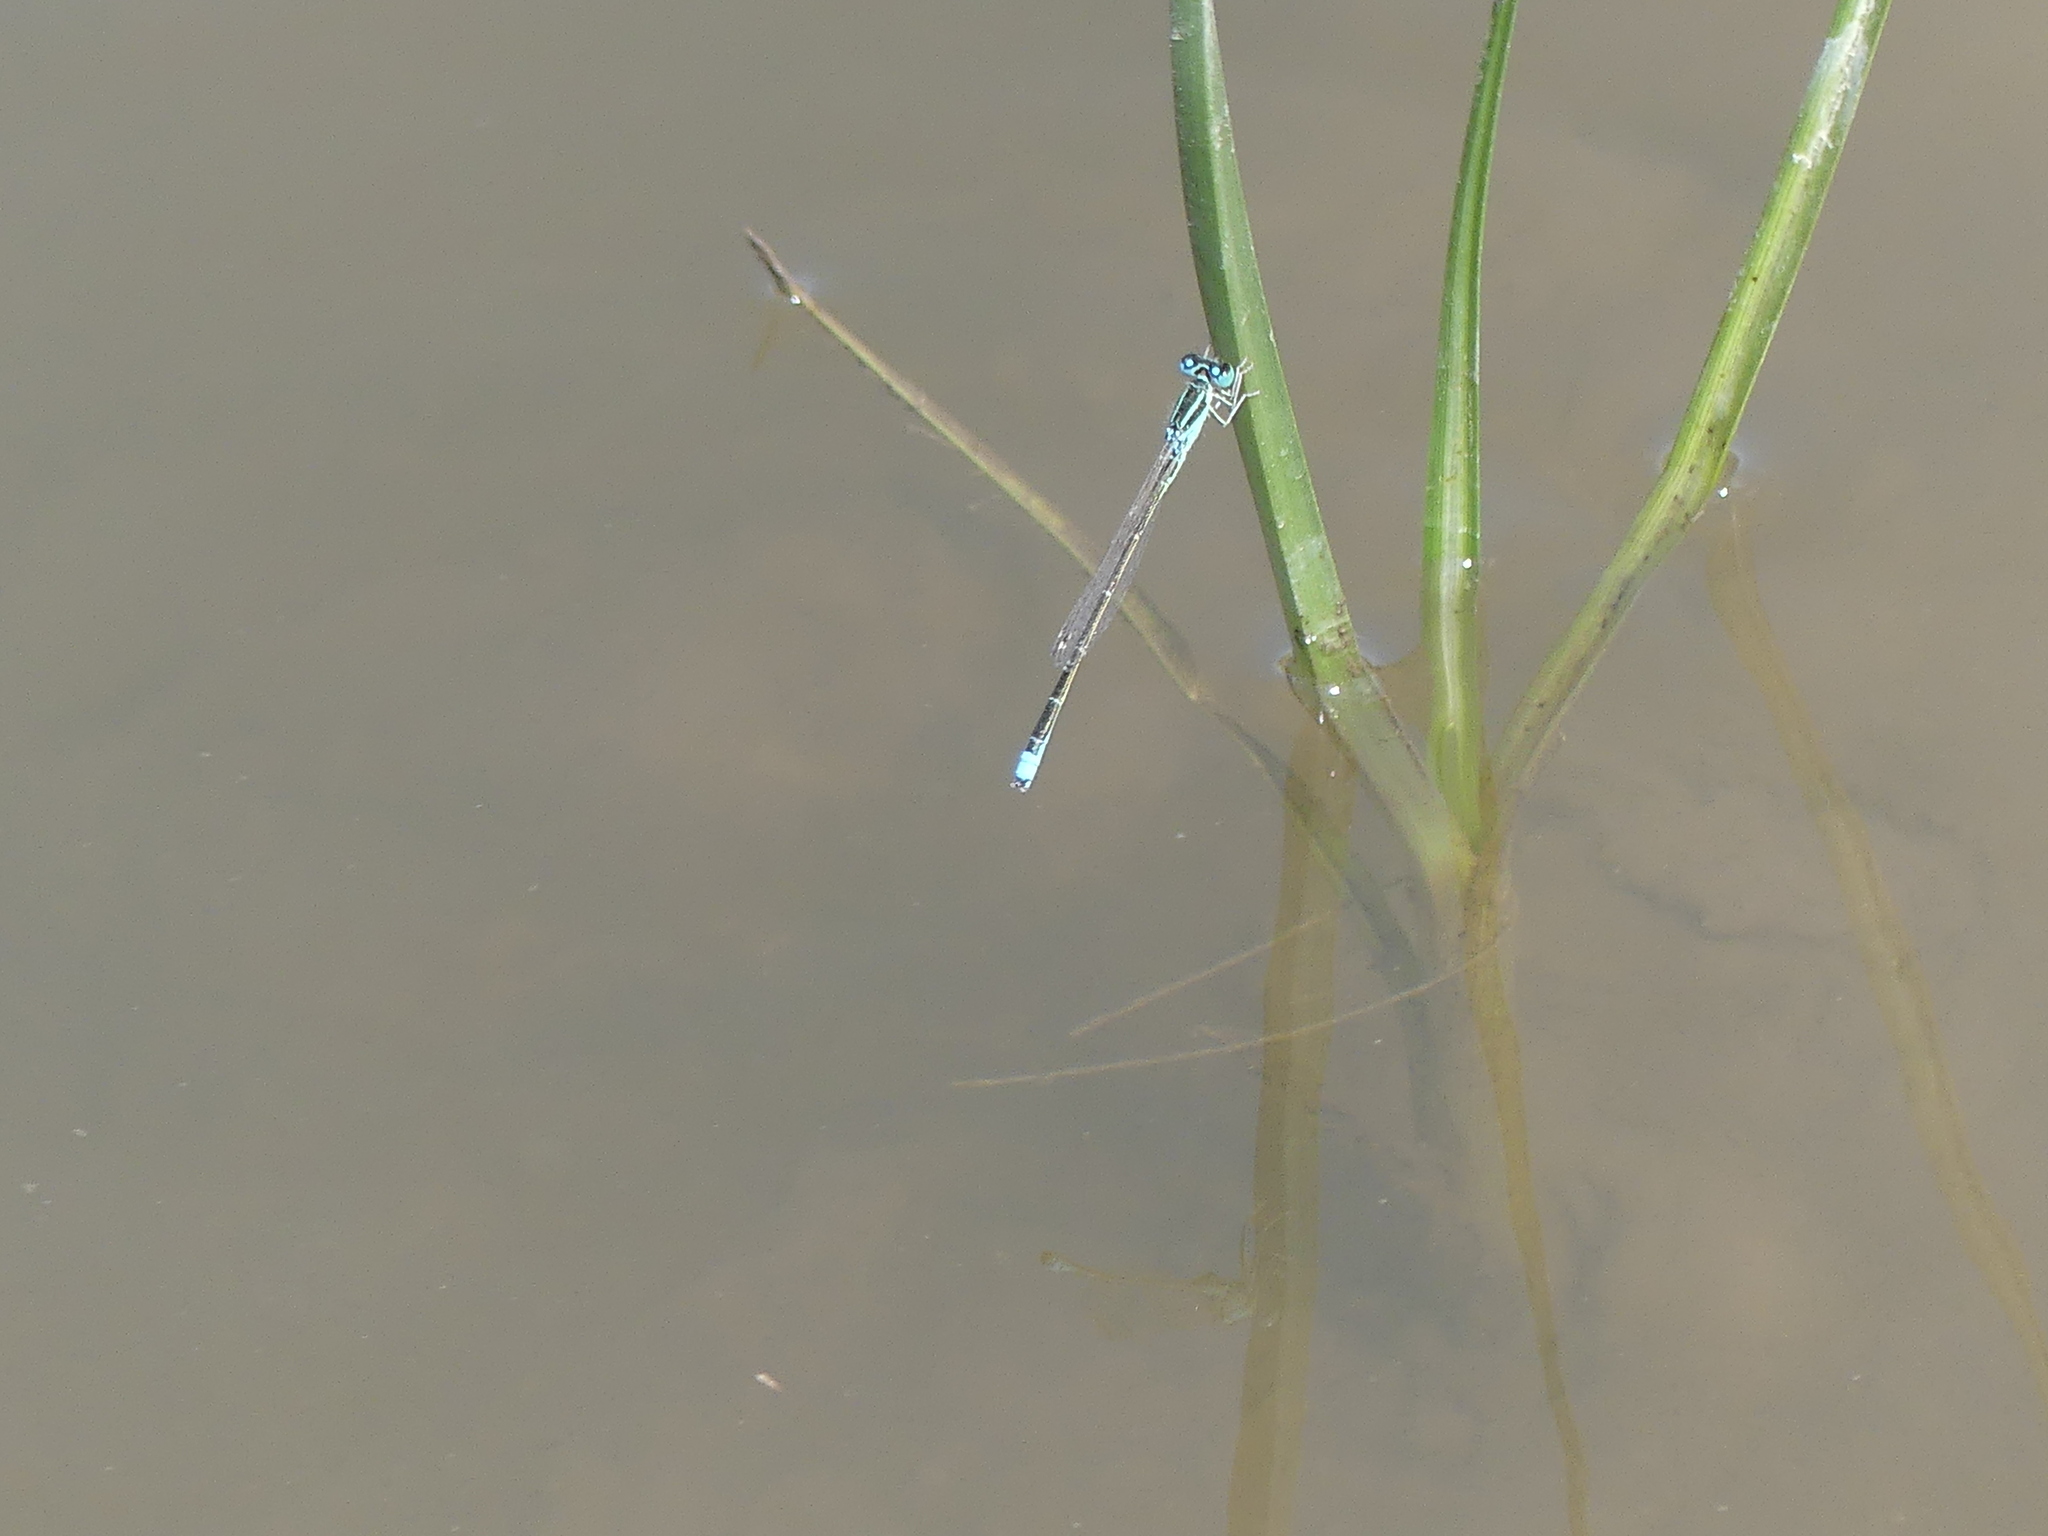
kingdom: Animalia
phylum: Arthropoda
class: Insecta
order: Odonata
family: Coenagrionidae
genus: Ischnura
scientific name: Ischnura pumilio
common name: Scarce blue-tailed damselfly
